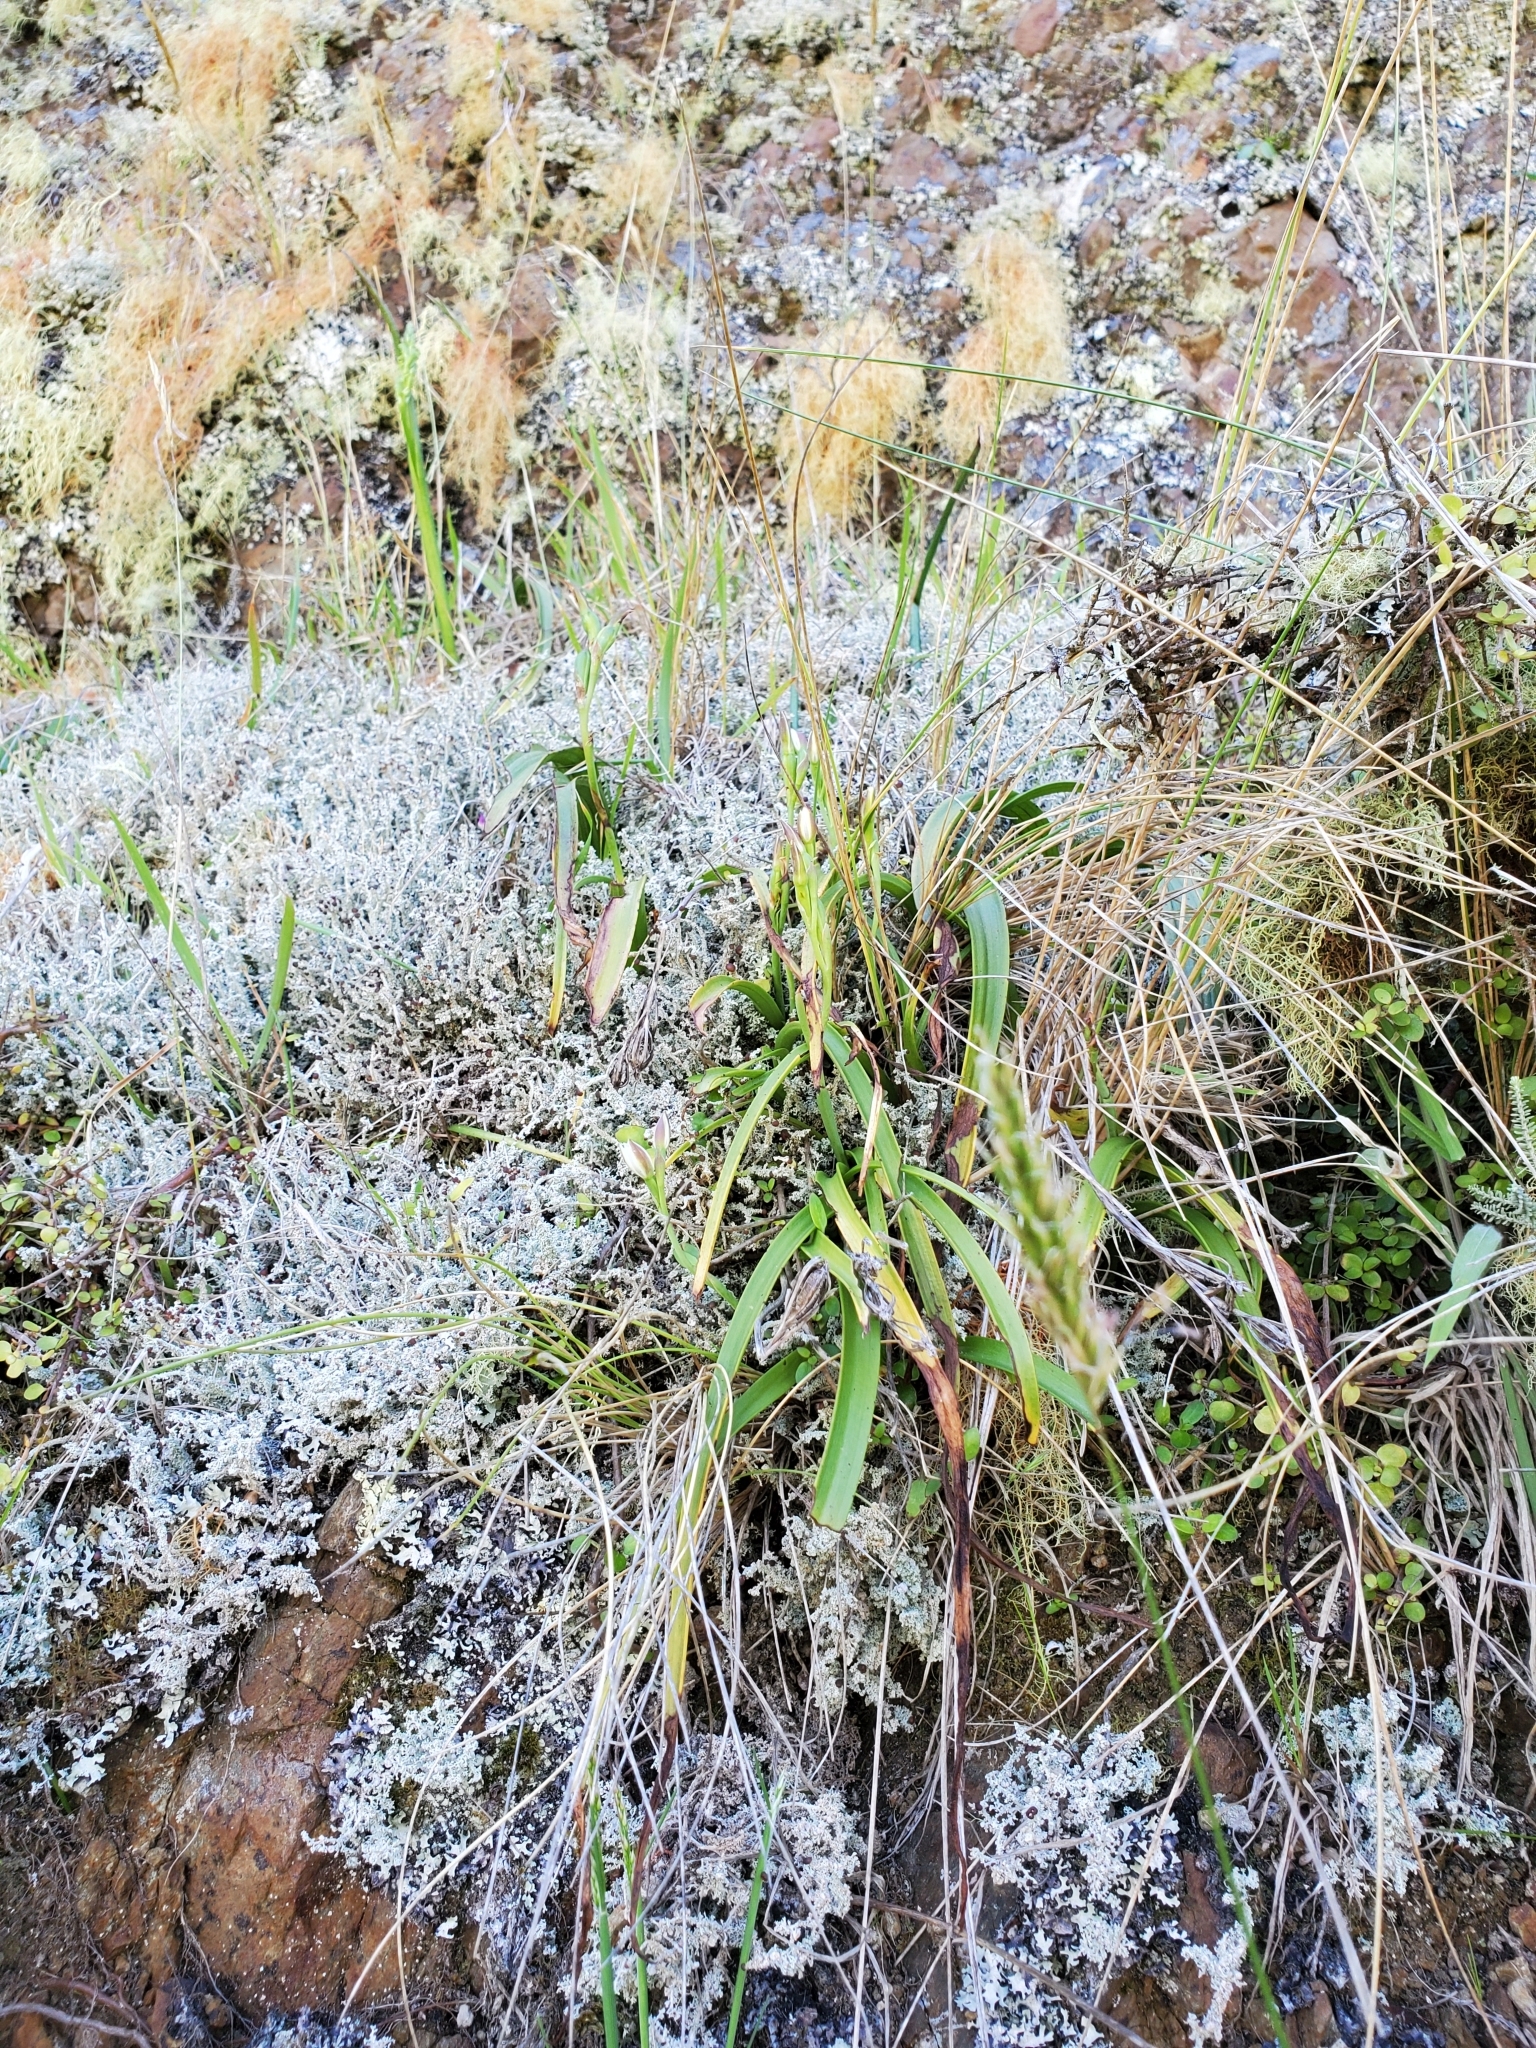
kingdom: Plantae
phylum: Tracheophyta
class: Liliopsida
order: Asparagales
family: Orchidaceae
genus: Thelymitra
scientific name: Thelymitra longifolia
